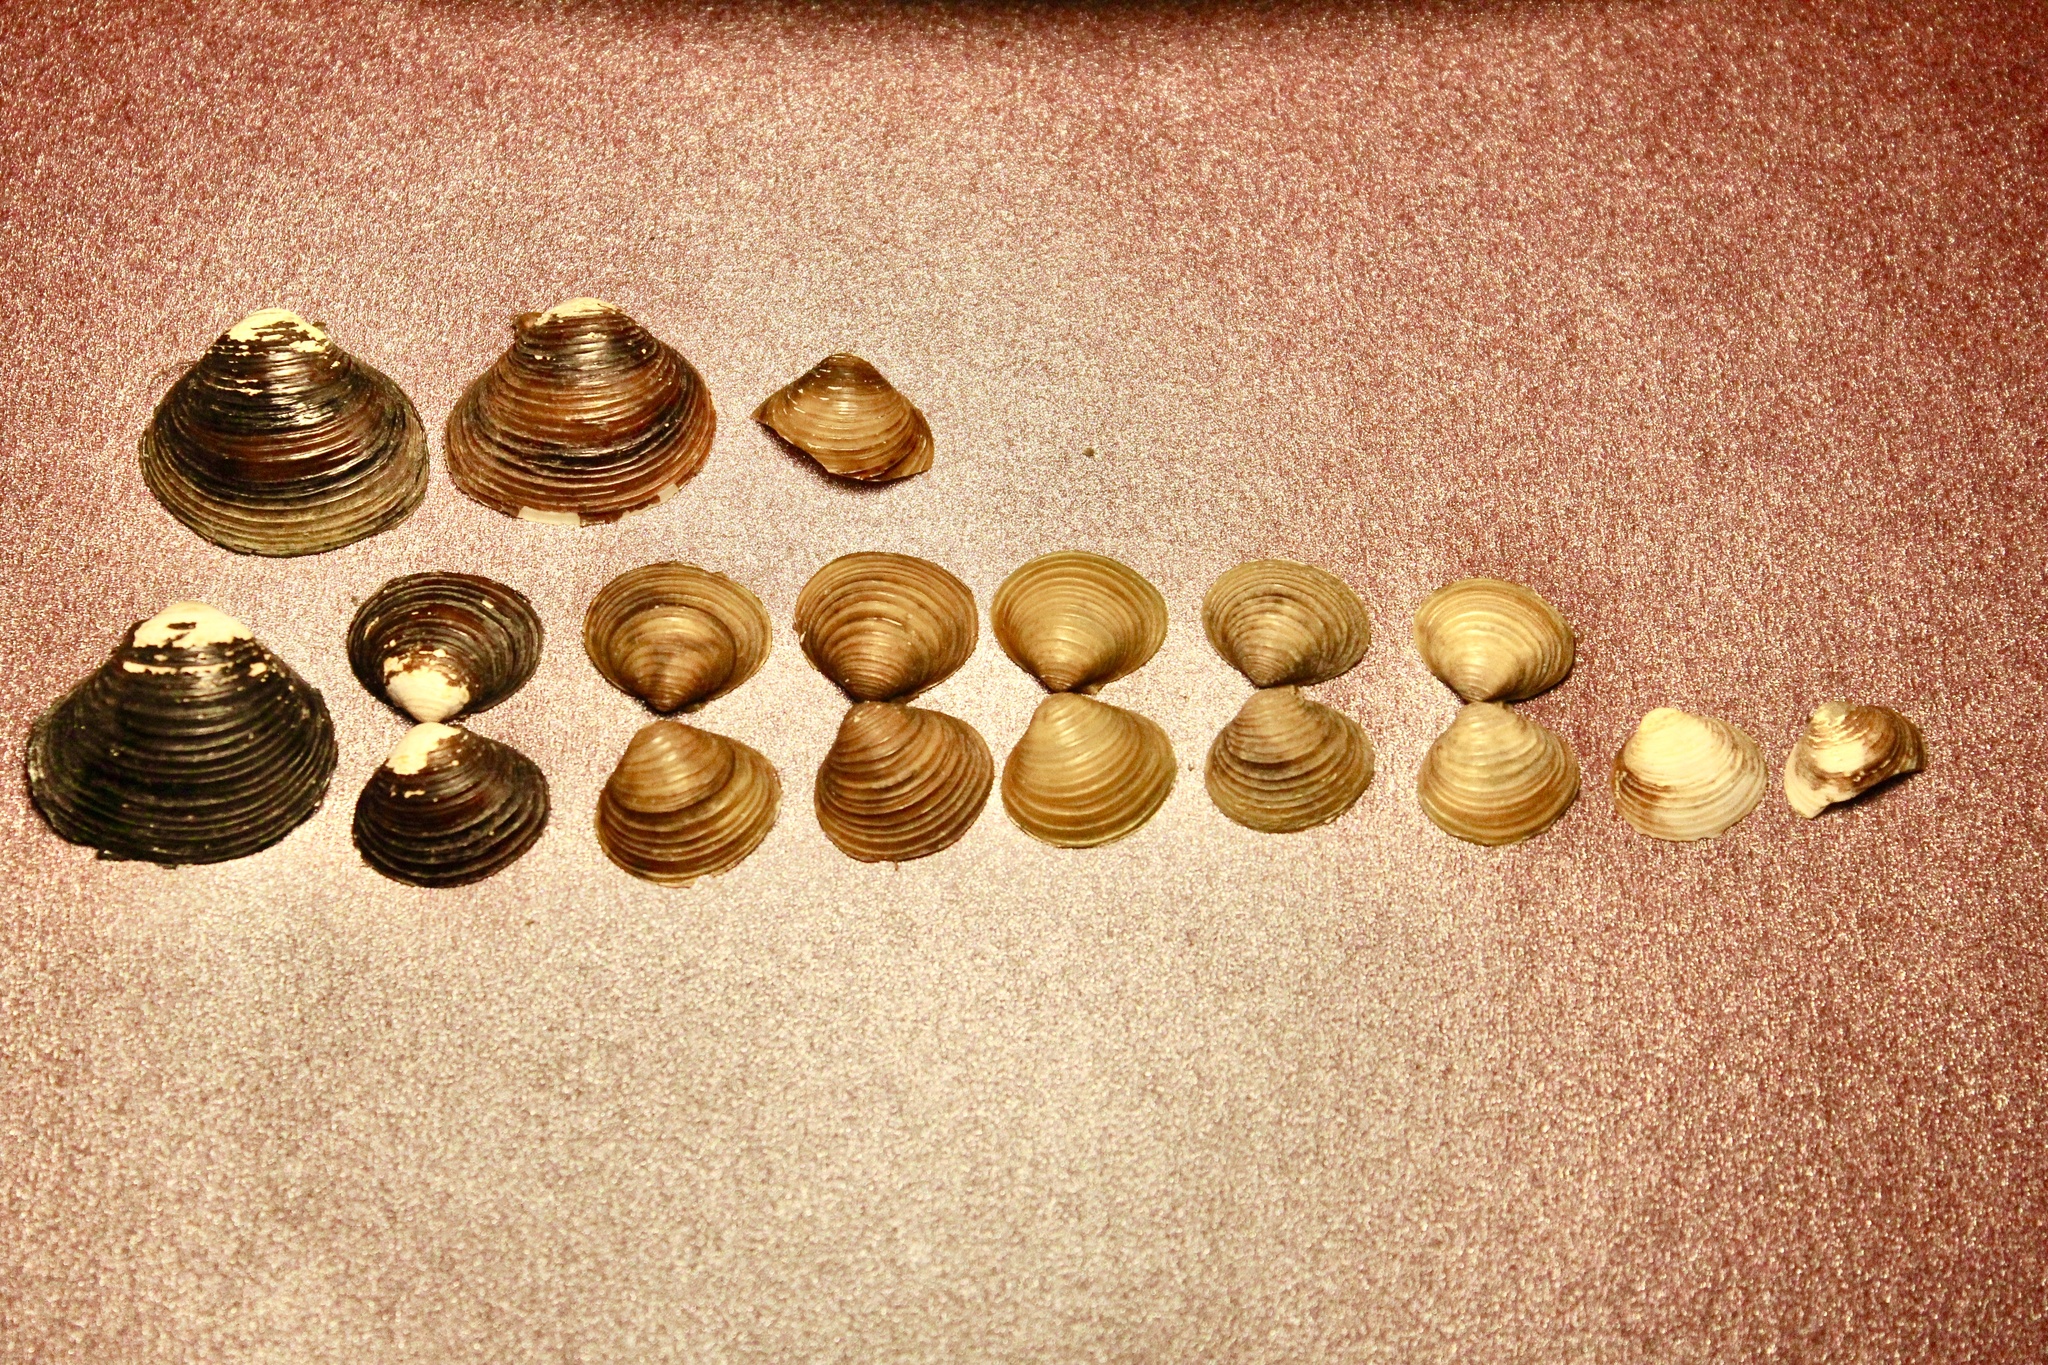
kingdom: Animalia
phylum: Mollusca
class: Bivalvia
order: Venerida
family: Cyrenidae
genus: Corbicula
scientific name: Corbicula fluminea
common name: Asian clam
